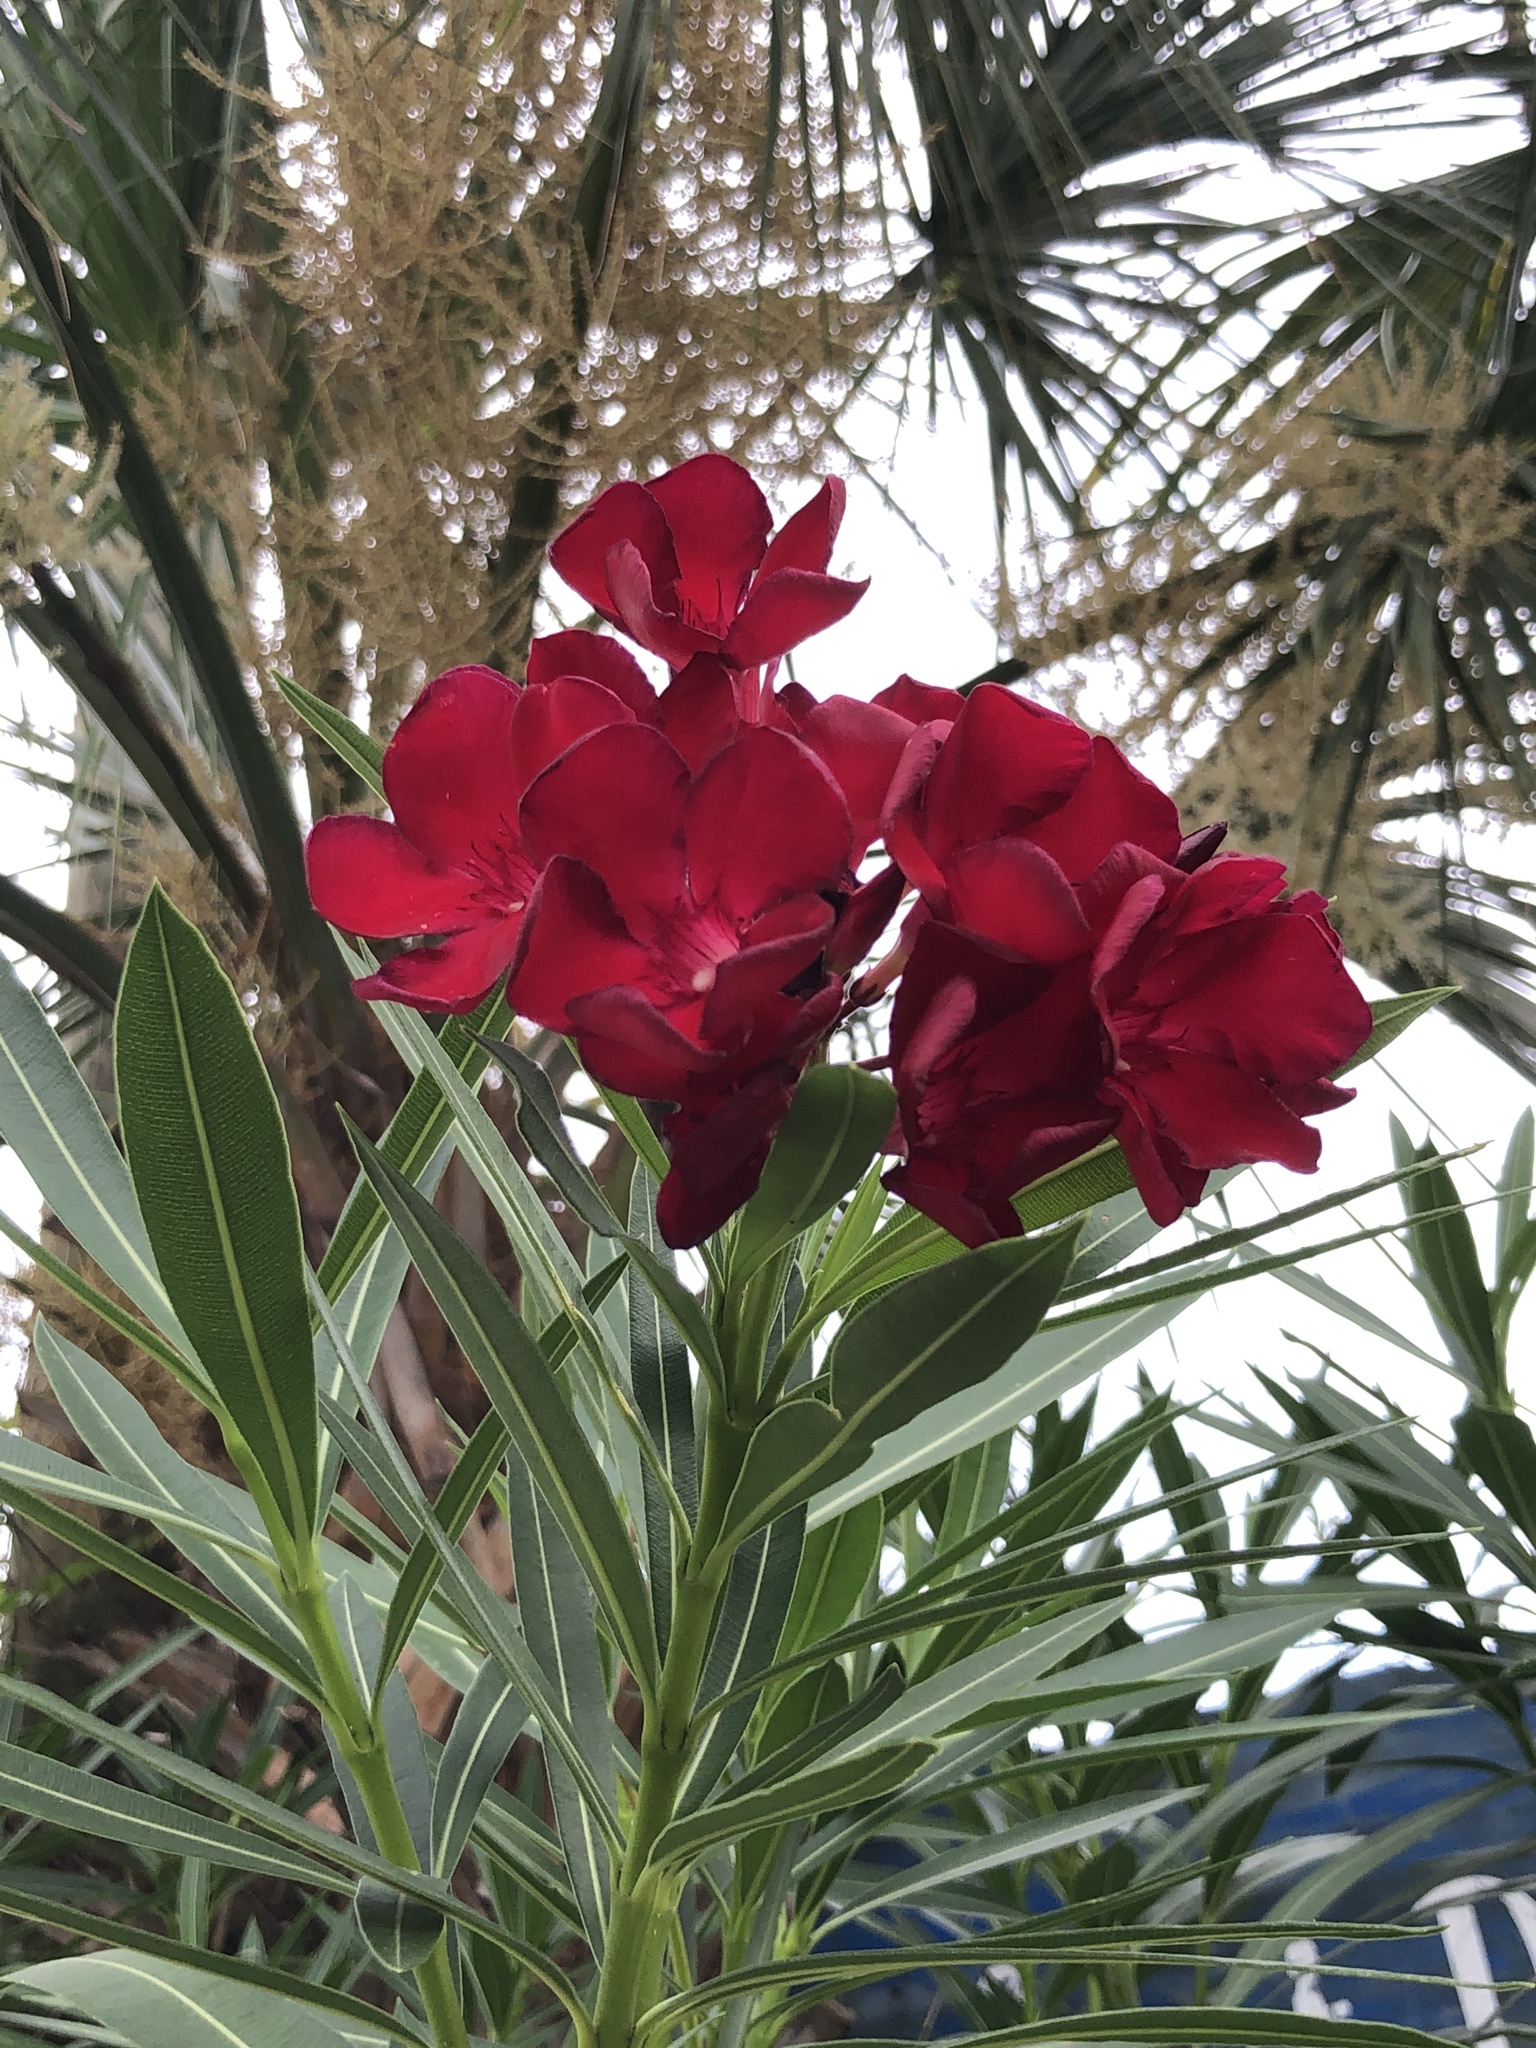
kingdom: Plantae
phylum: Tracheophyta
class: Magnoliopsida
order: Gentianales
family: Apocynaceae
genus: Nerium
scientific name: Nerium oleander
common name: Oleander
